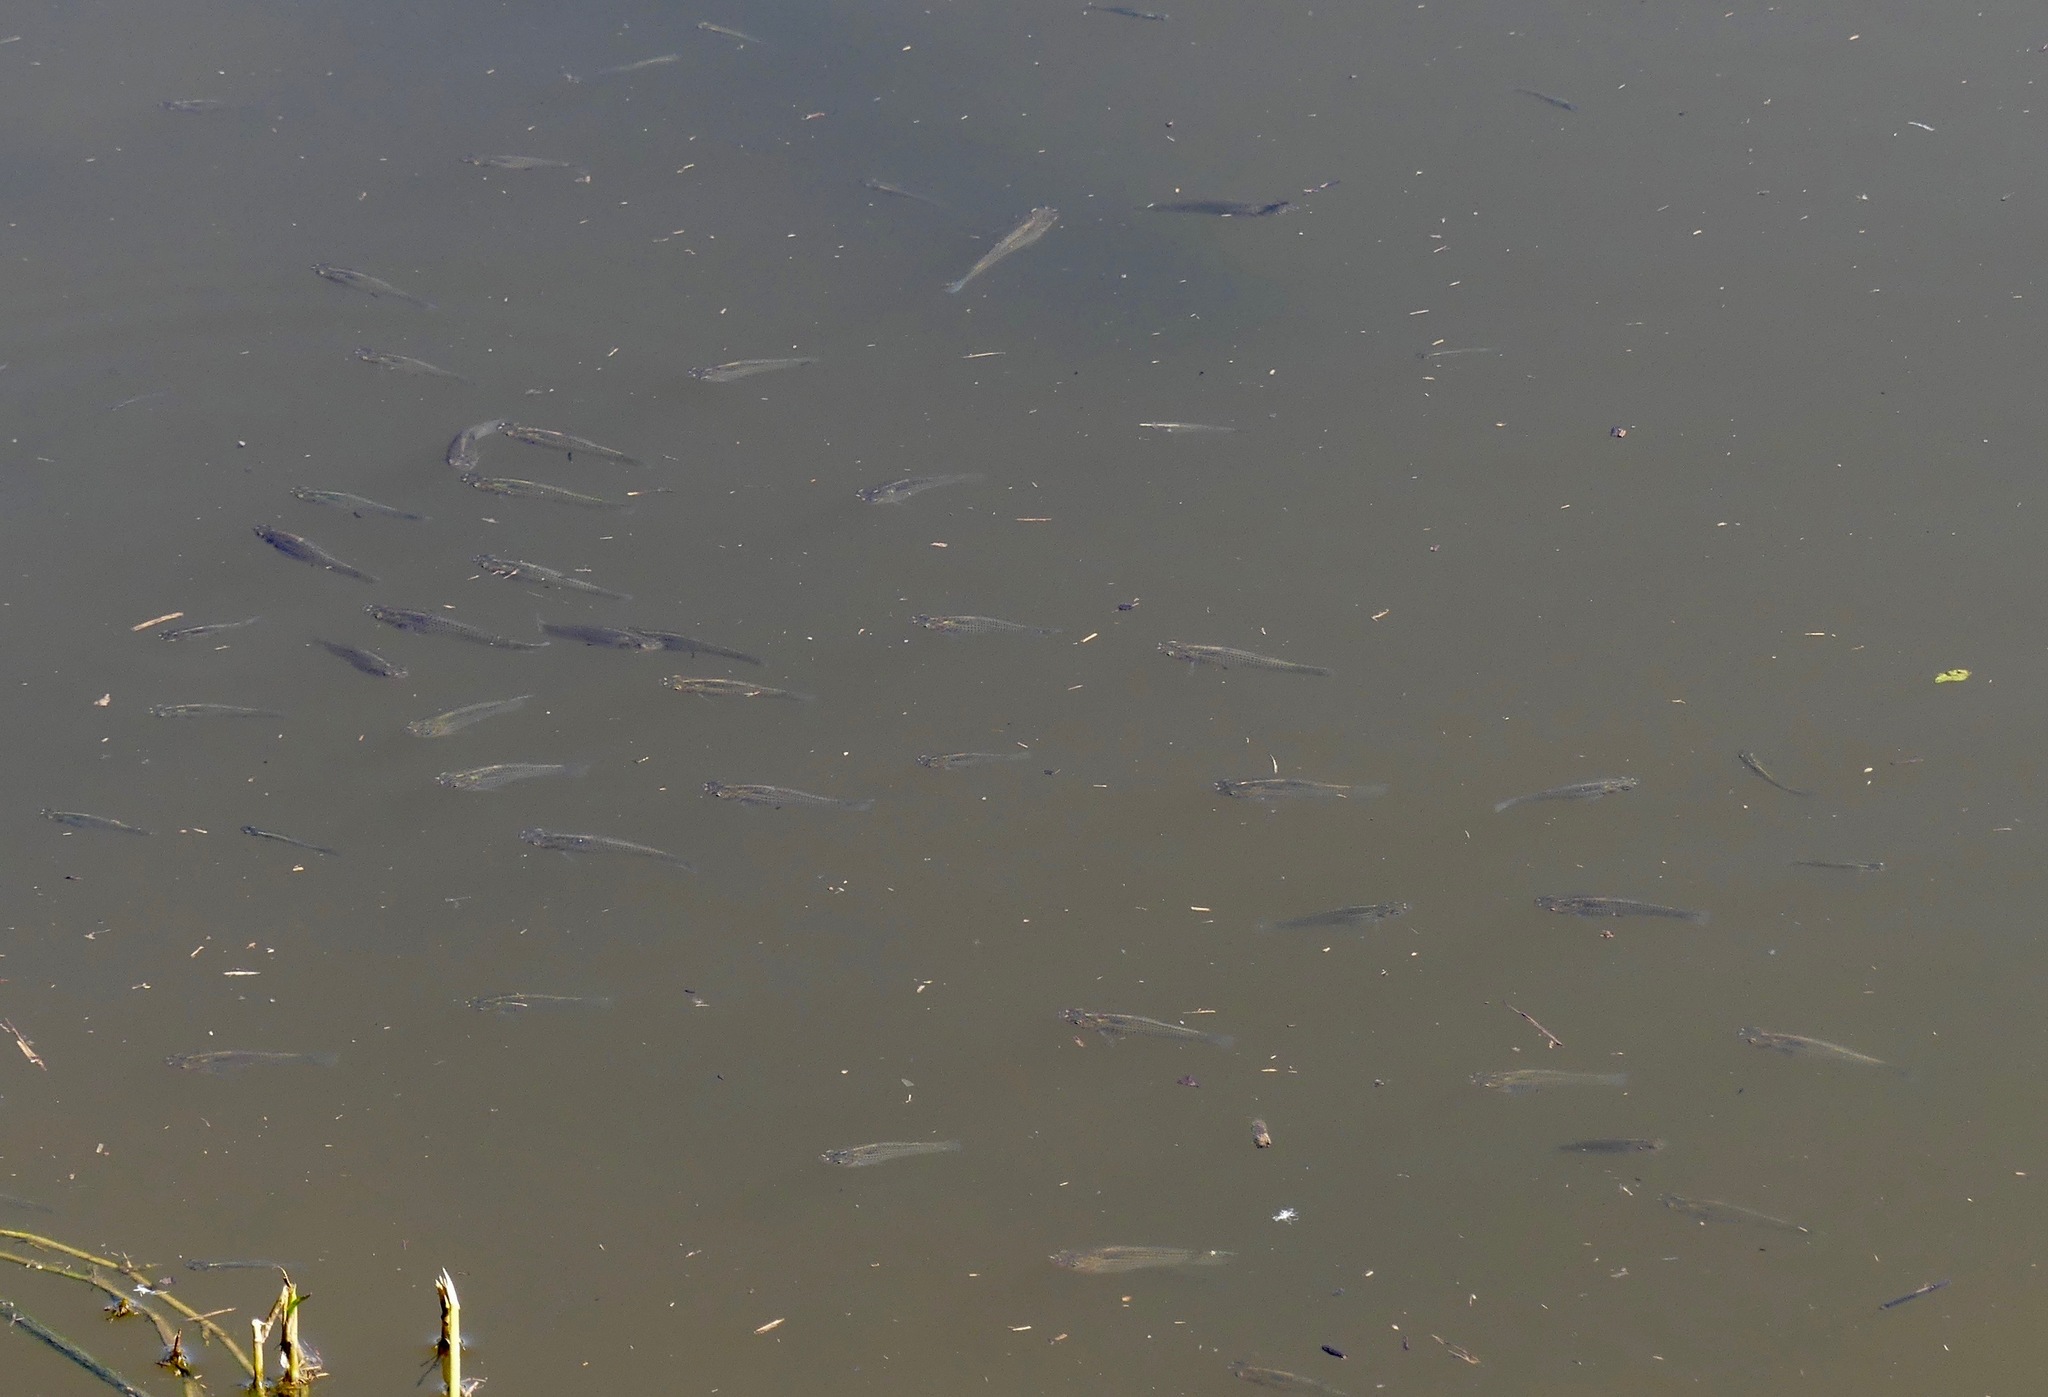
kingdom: Animalia
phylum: Chordata
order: Cyprinodontiformes
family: Poeciliidae
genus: Poecilia
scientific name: Poecilia latipinna
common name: Sailfin molly
